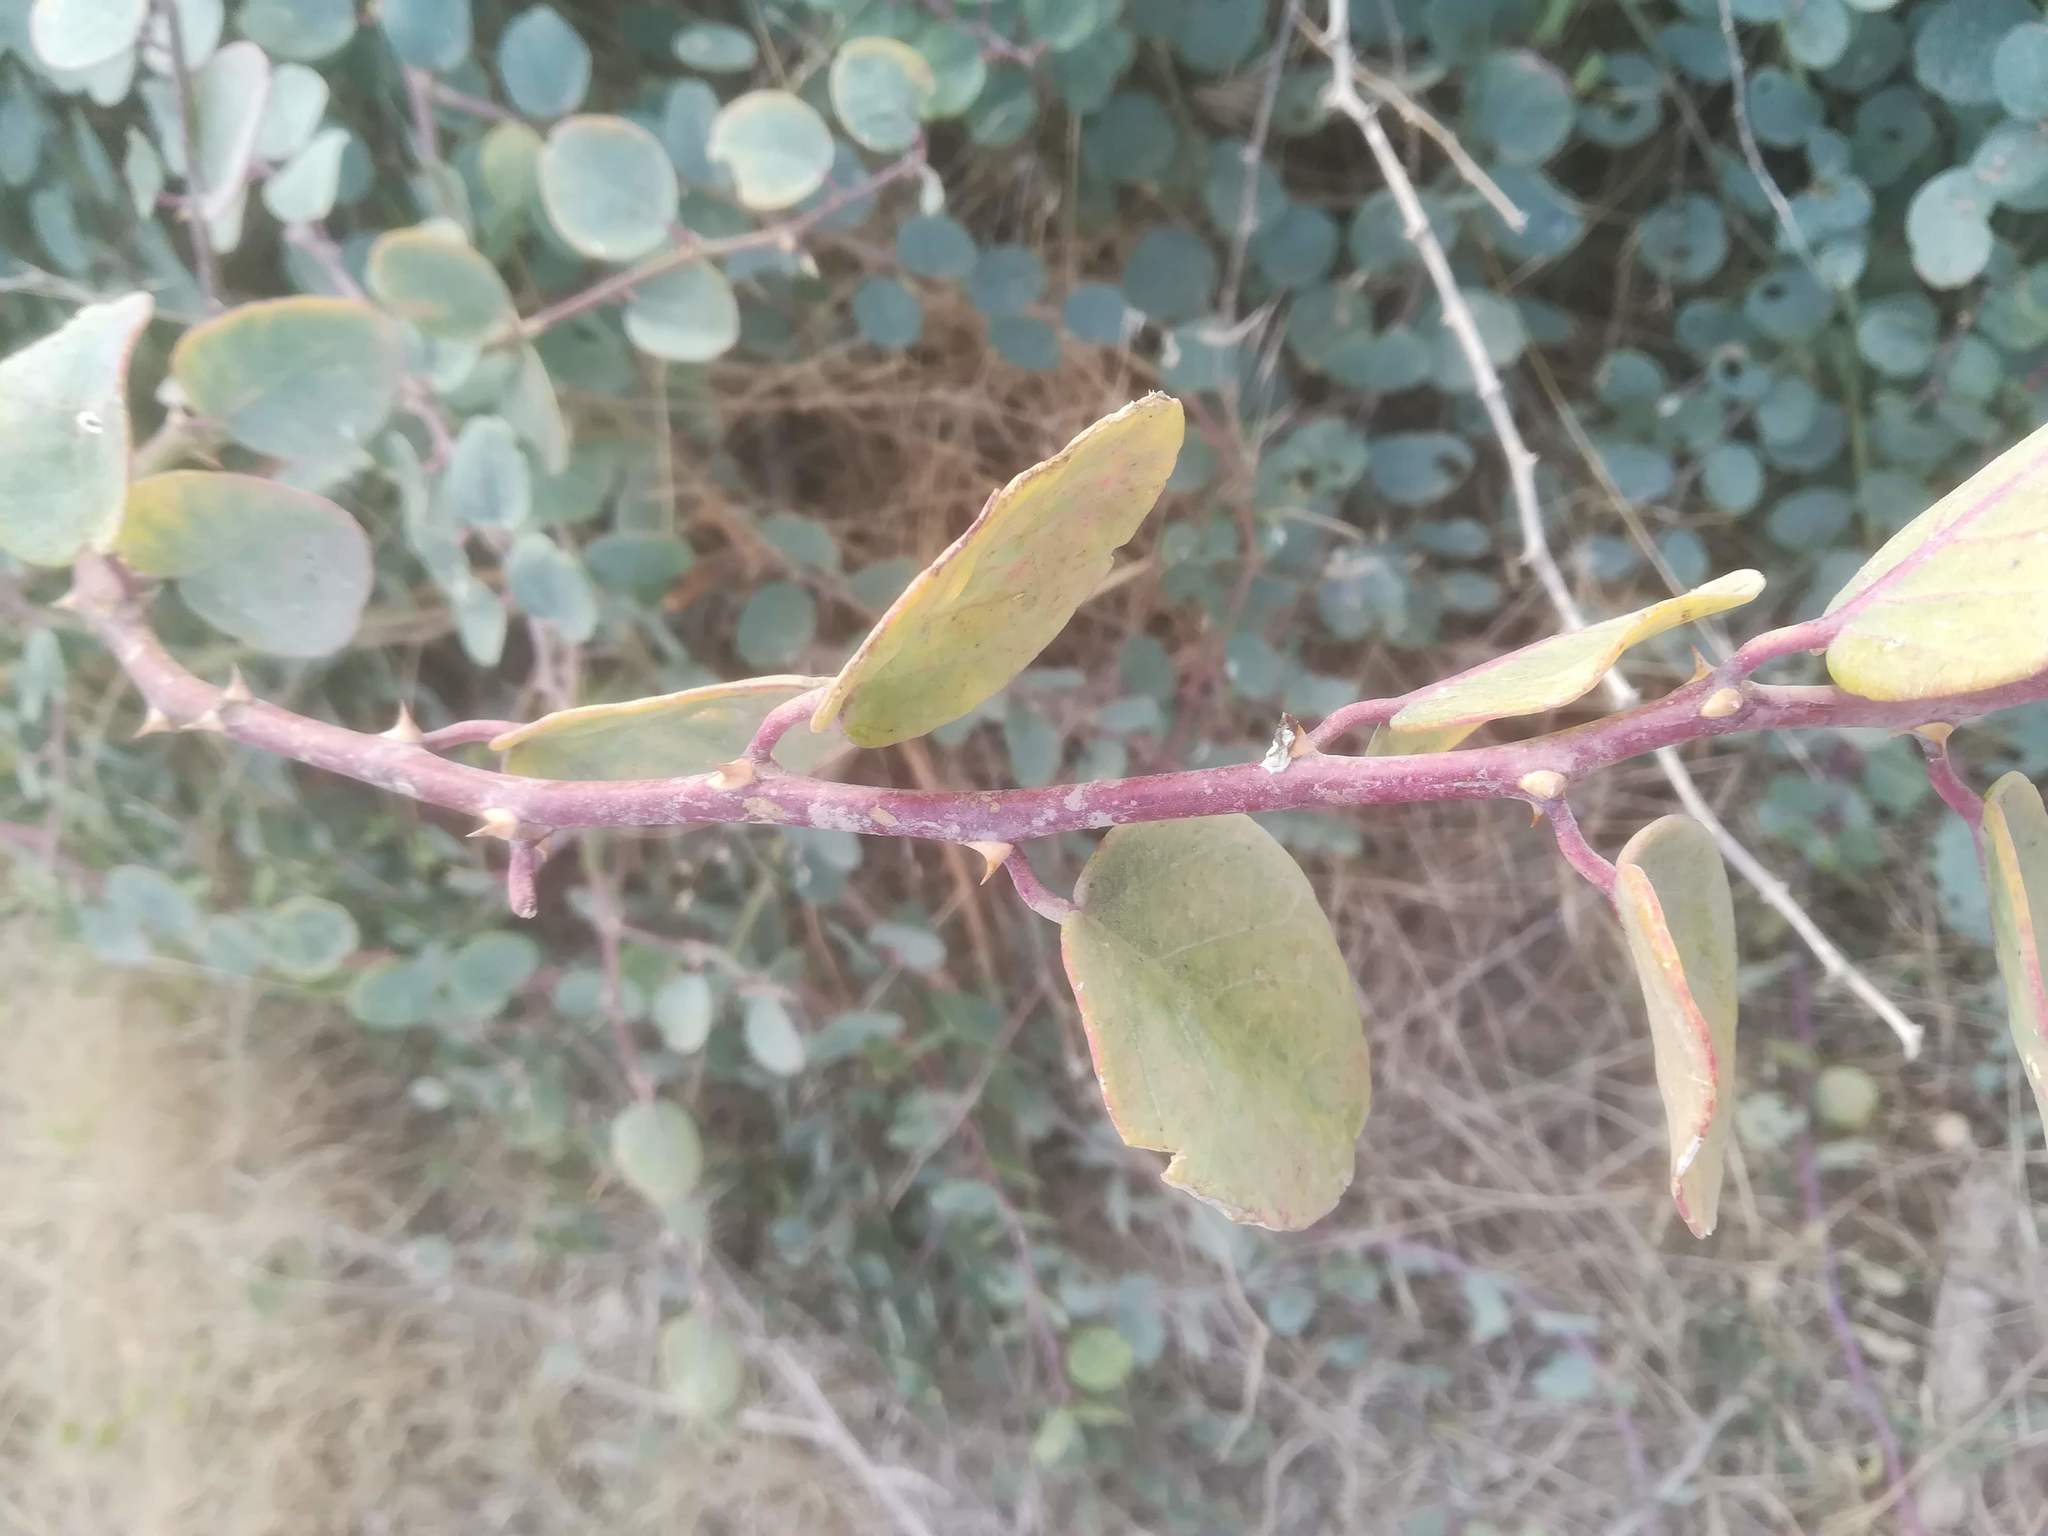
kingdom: Plantae
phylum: Tracheophyta
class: Magnoliopsida
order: Brassicales
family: Capparaceae
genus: Capparis
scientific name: Capparis spinosa
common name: Caper
